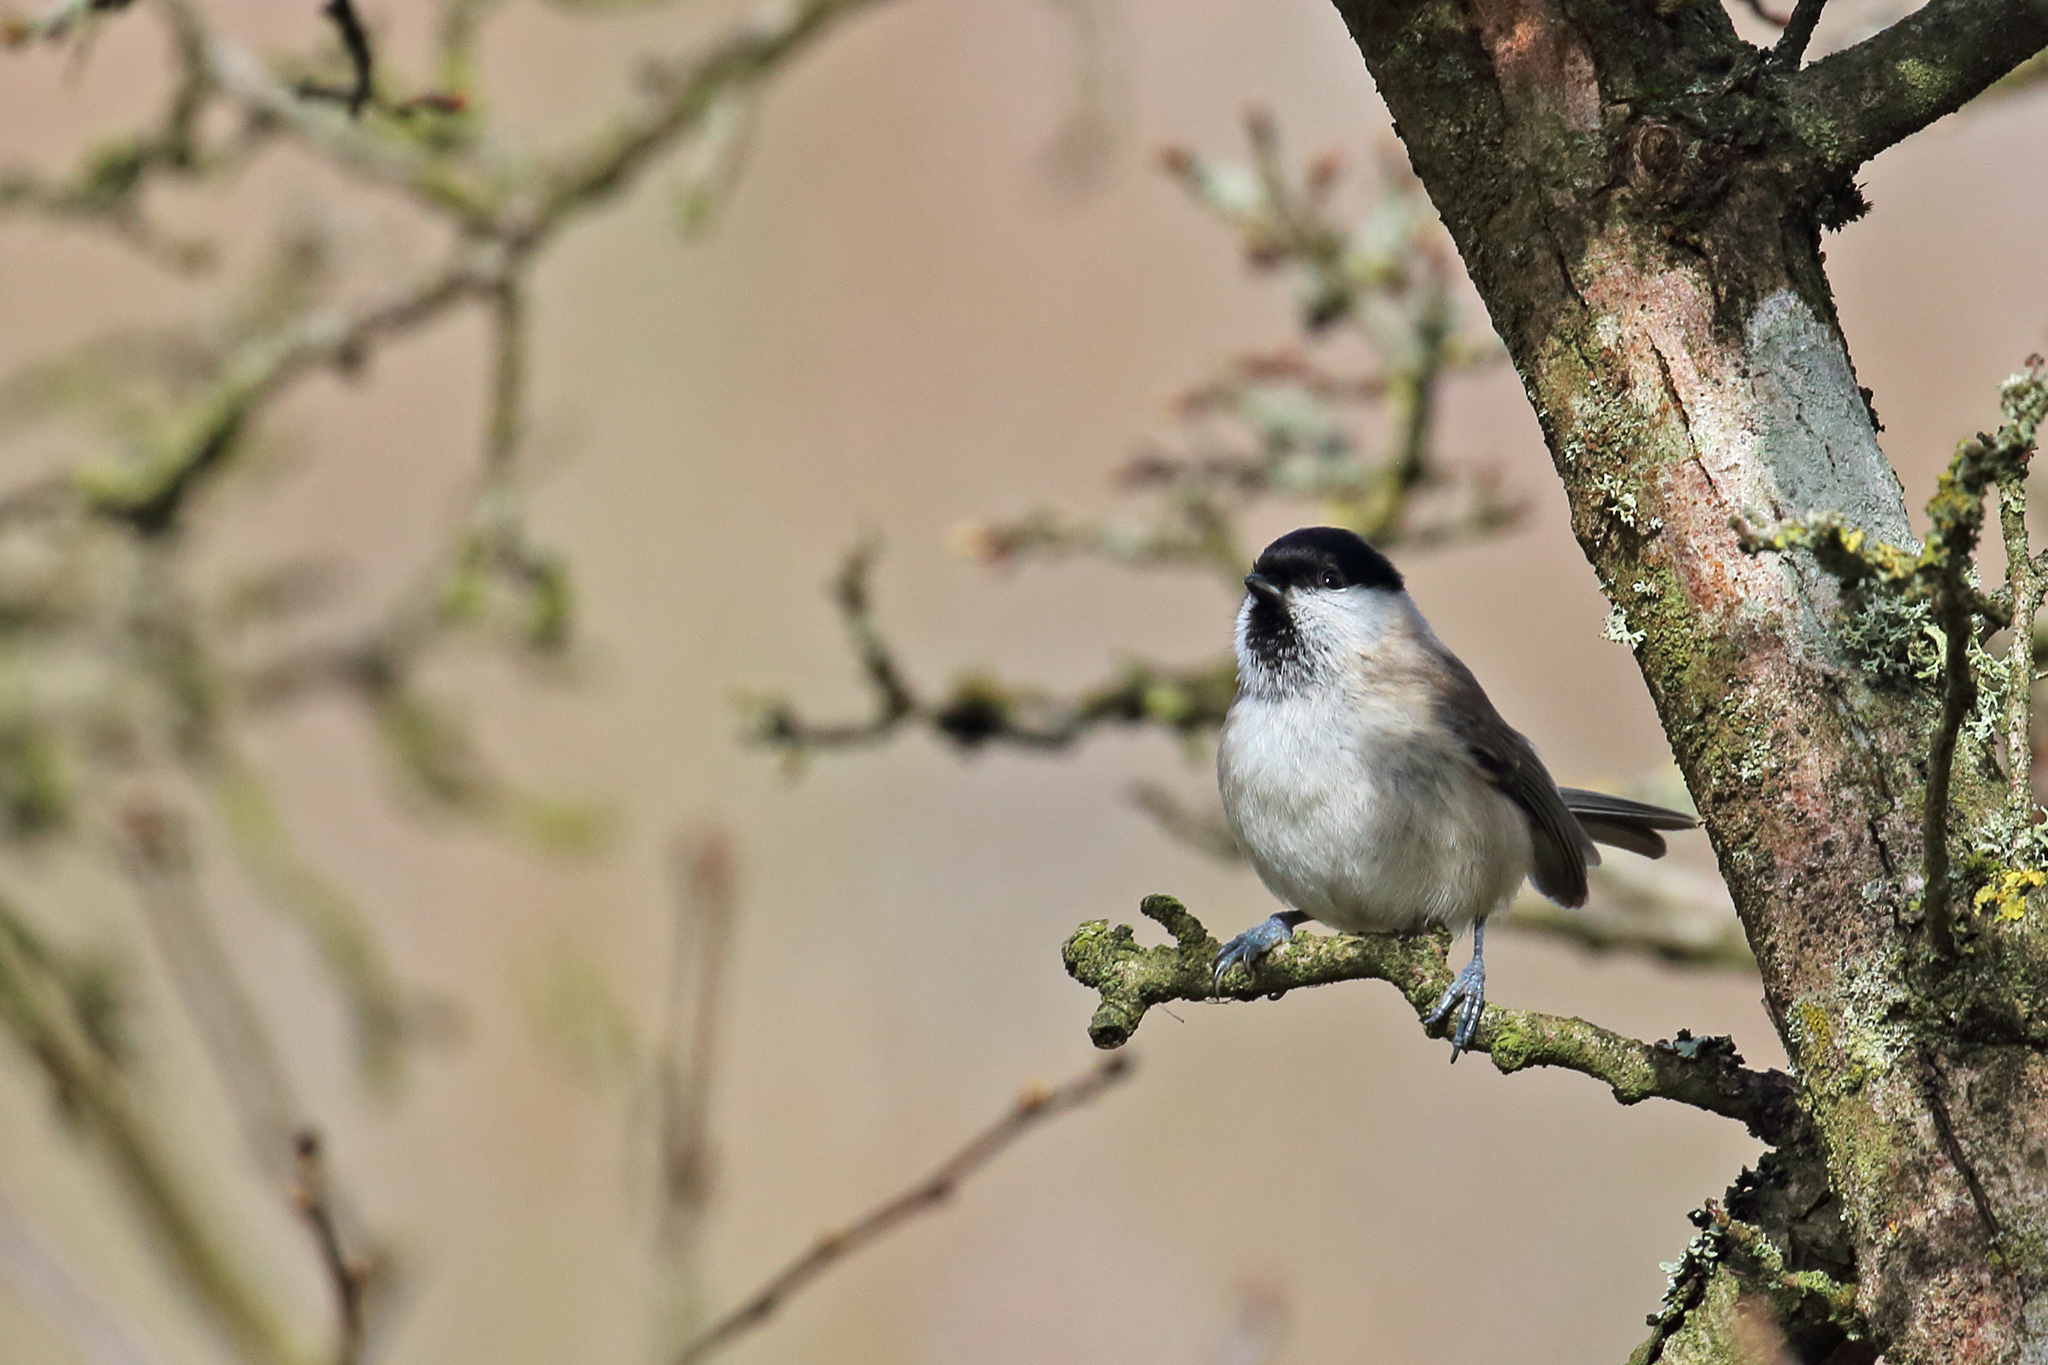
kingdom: Animalia
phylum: Chordata
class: Aves
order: Passeriformes
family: Paridae
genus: Poecile
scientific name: Poecile palustris
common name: Marsh tit
